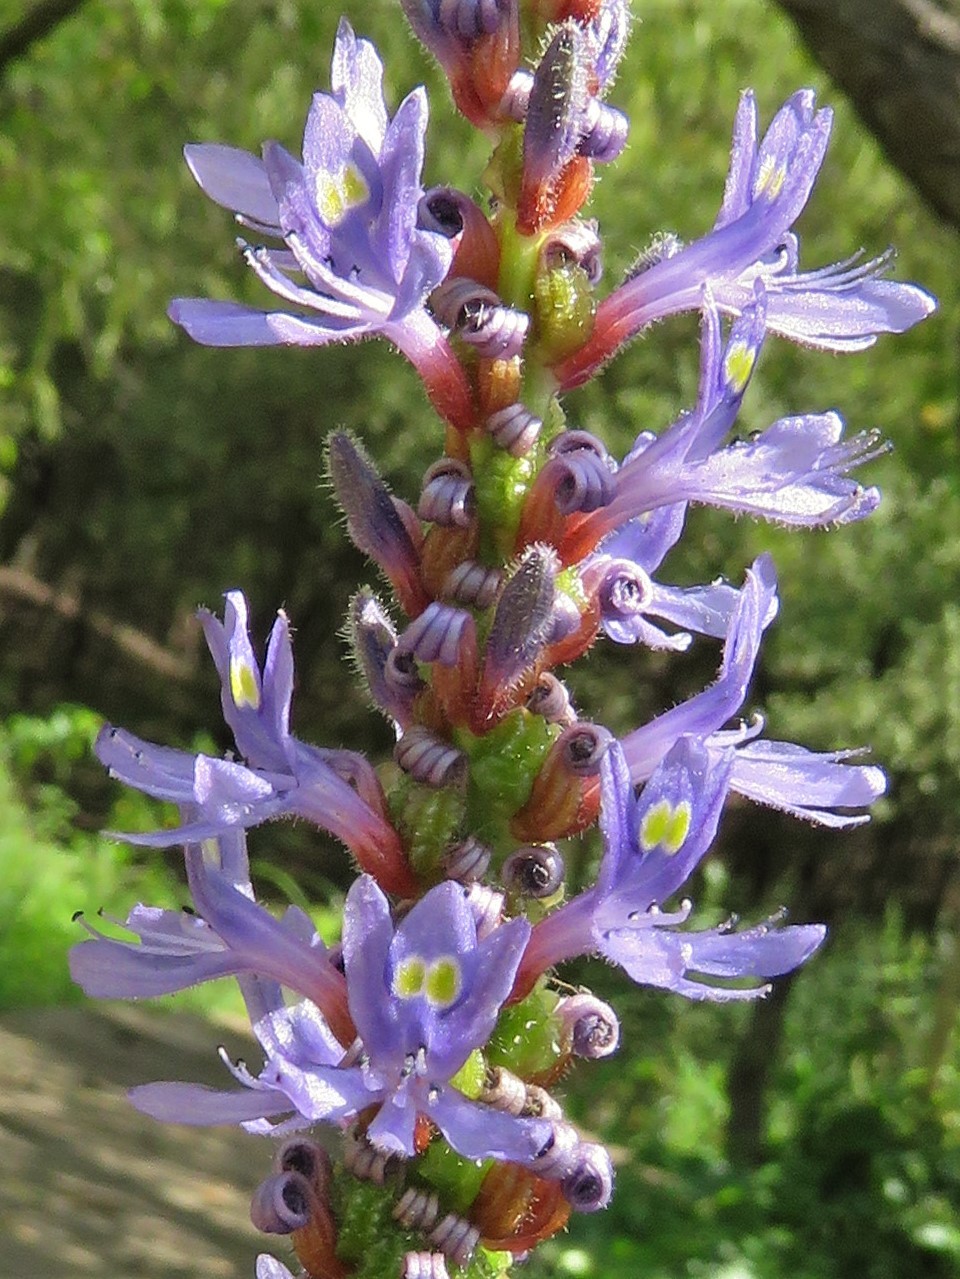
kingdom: Plantae
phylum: Tracheophyta
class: Liliopsida
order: Commelinales
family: Pontederiaceae
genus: Pontederia
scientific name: Pontederia cordata
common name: Pickerelweed
